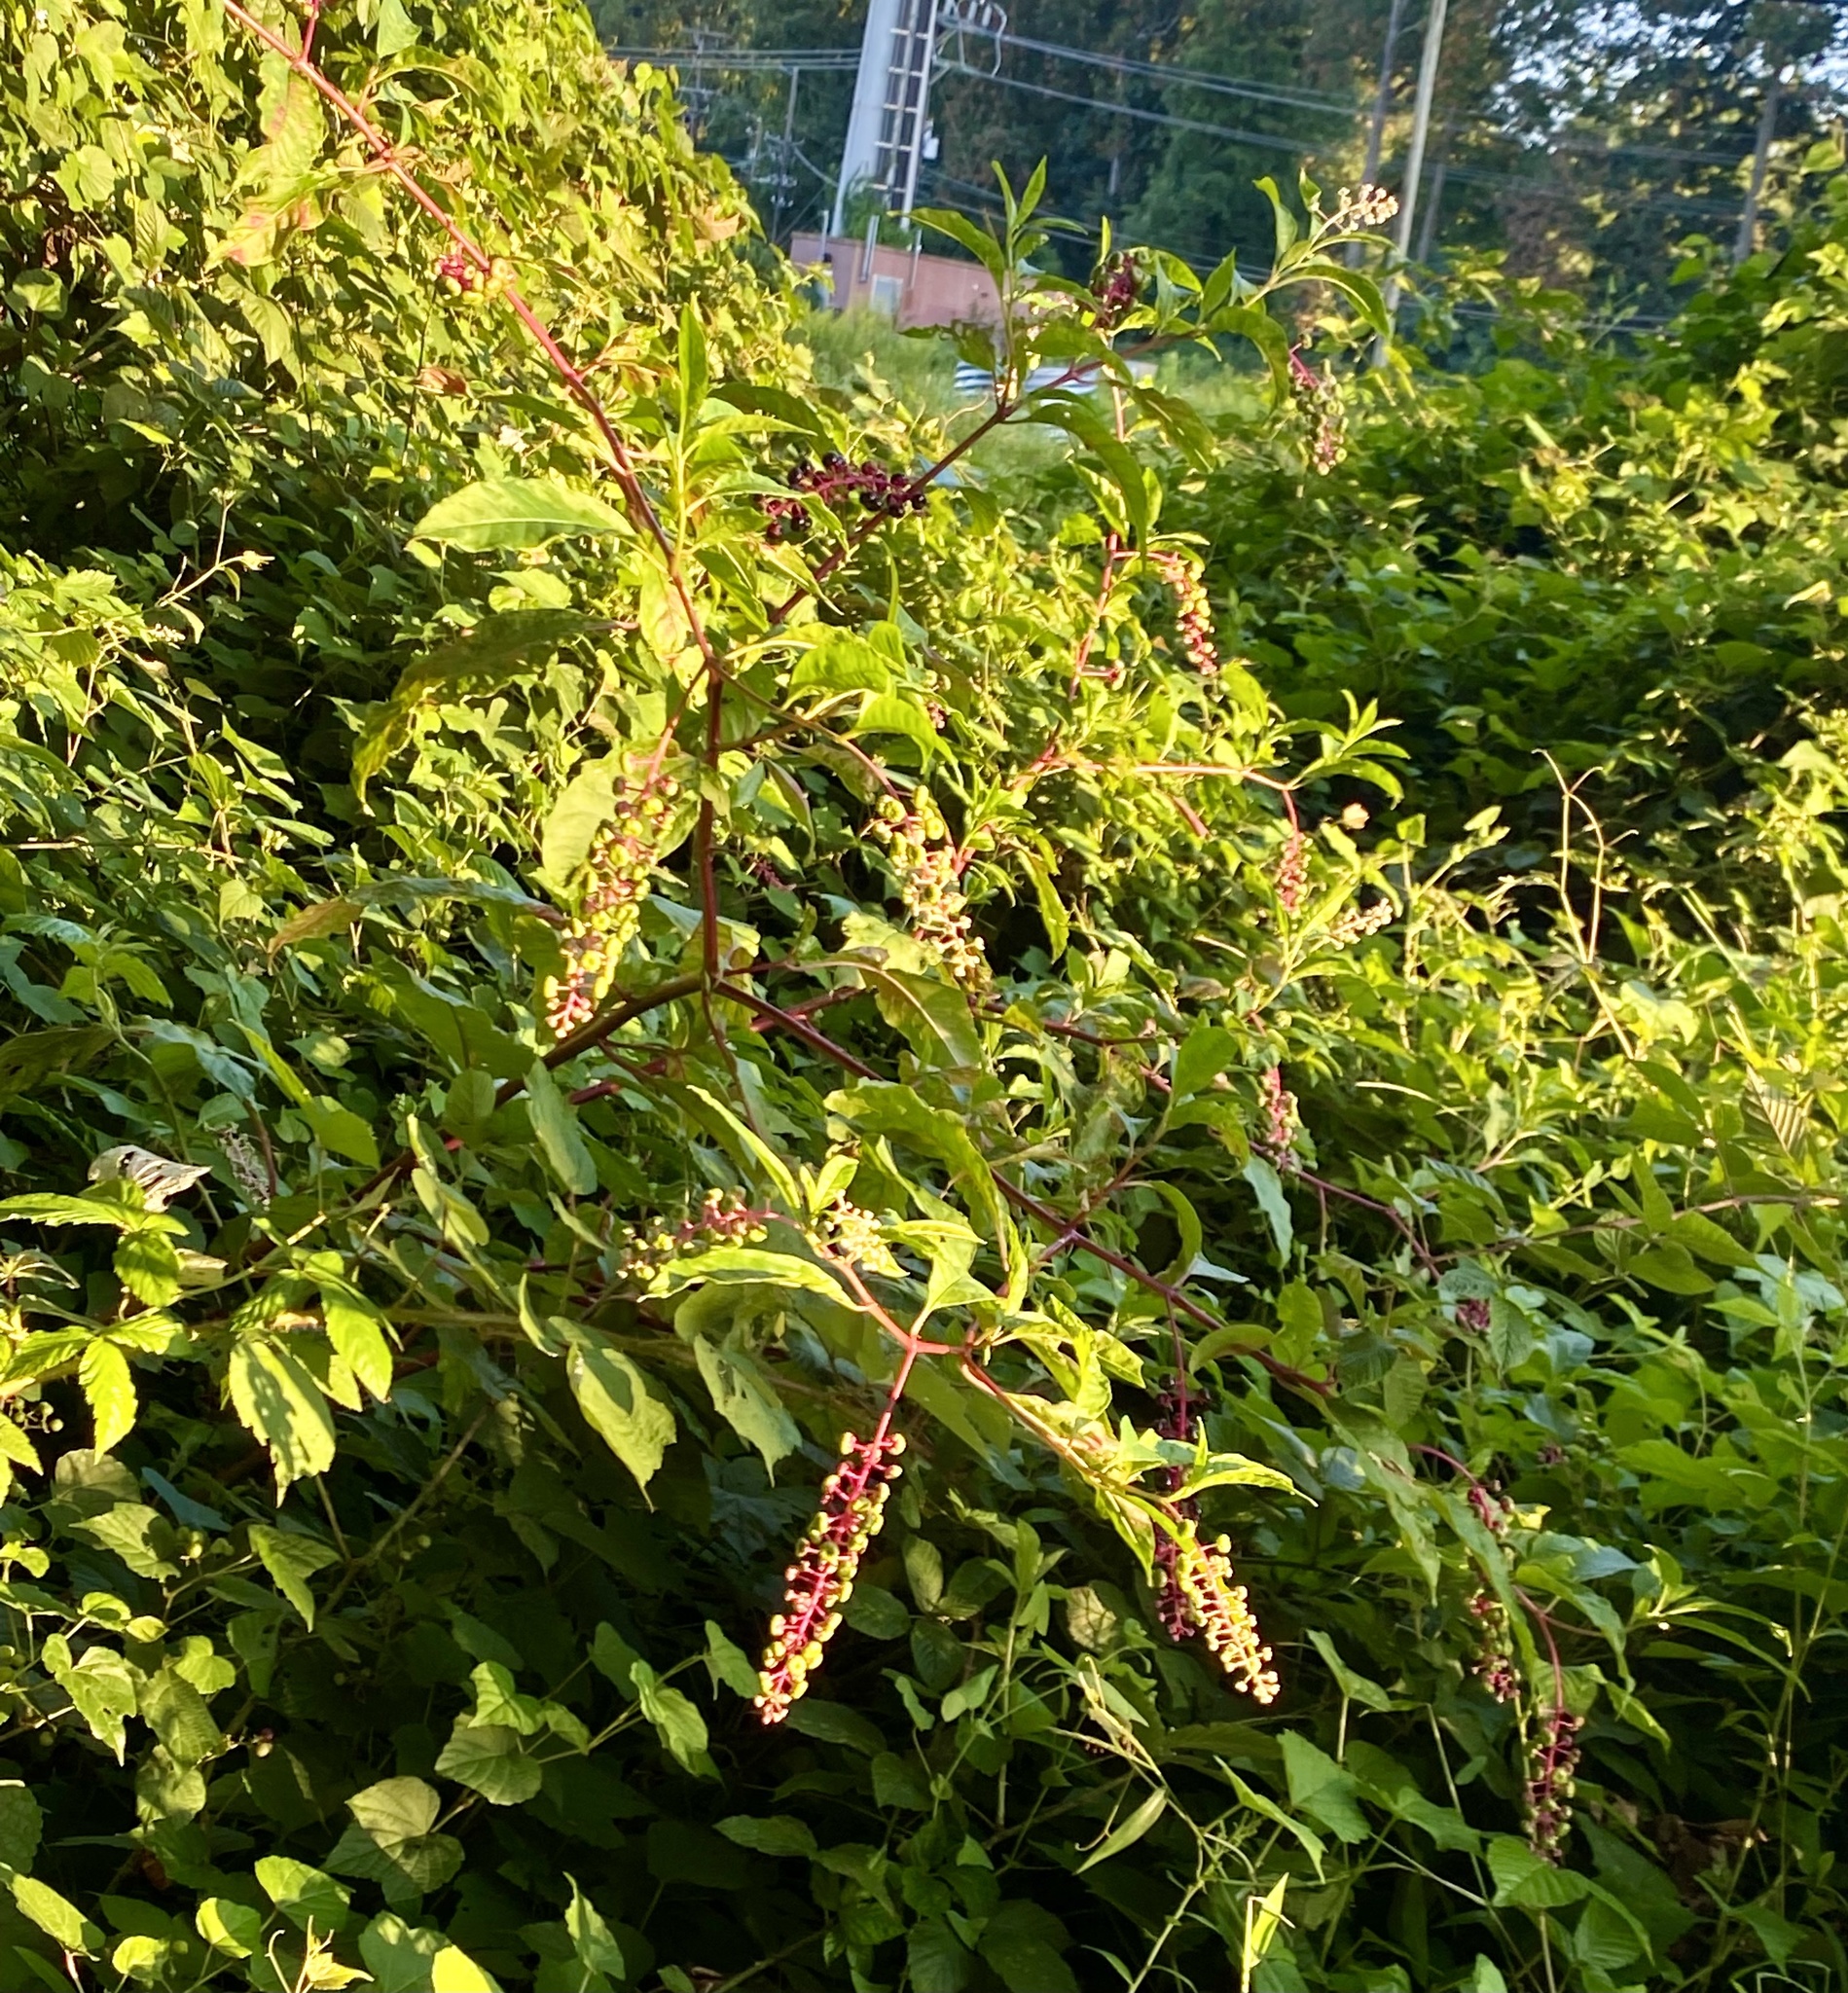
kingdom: Plantae
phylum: Tracheophyta
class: Magnoliopsida
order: Caryophyllales
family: Phytolaccaceae
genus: Phytolacca
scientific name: Phytolacca americana
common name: American pokeweed
